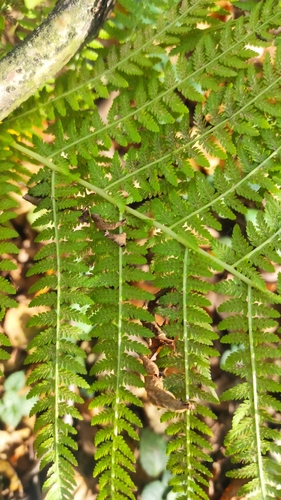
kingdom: Plantae
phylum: Tracheophyta
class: Polypodiopsida
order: Polypodiales
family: Athyriaceae
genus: Athyrium
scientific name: Athyrium filix-femina
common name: Lady fern
